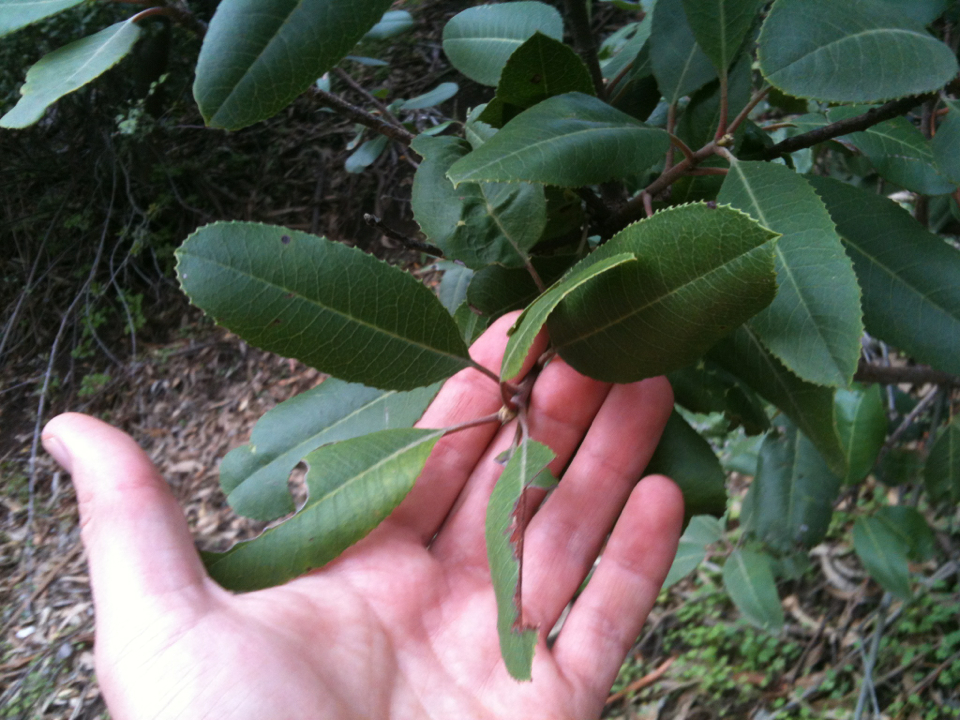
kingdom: Plantae
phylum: Tracheophyta
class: Magnoliopsida
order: Rosales
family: Rosaceae
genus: Heteromeles
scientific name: Heteromeles arbutifolia
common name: California-holly
